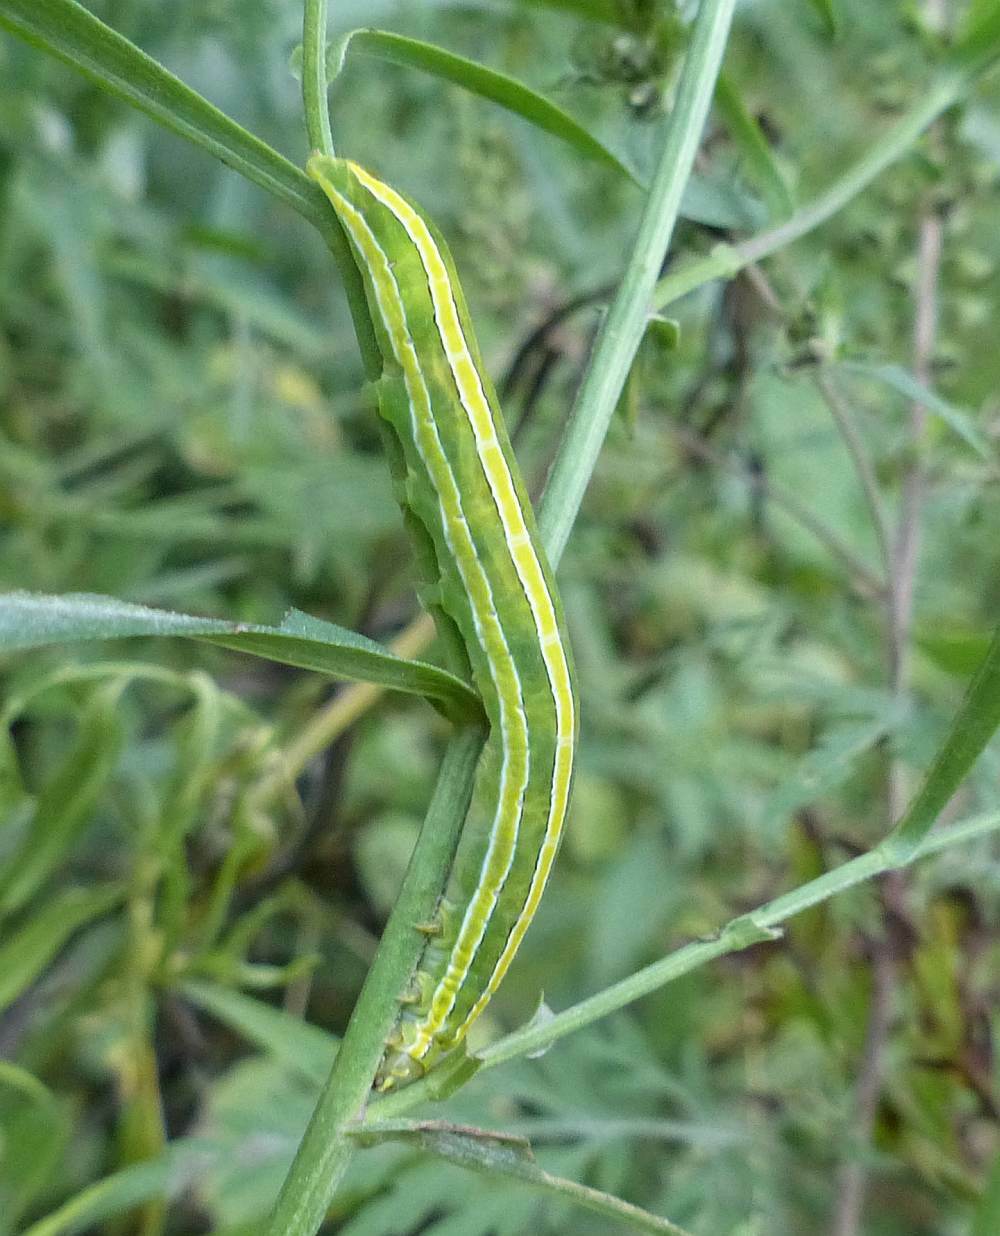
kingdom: Animalia
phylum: Arthropoda
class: Insecta
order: Lepidoptera
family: Noctuidae
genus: Melanchra
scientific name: Melanchra assimilis
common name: Black arches
